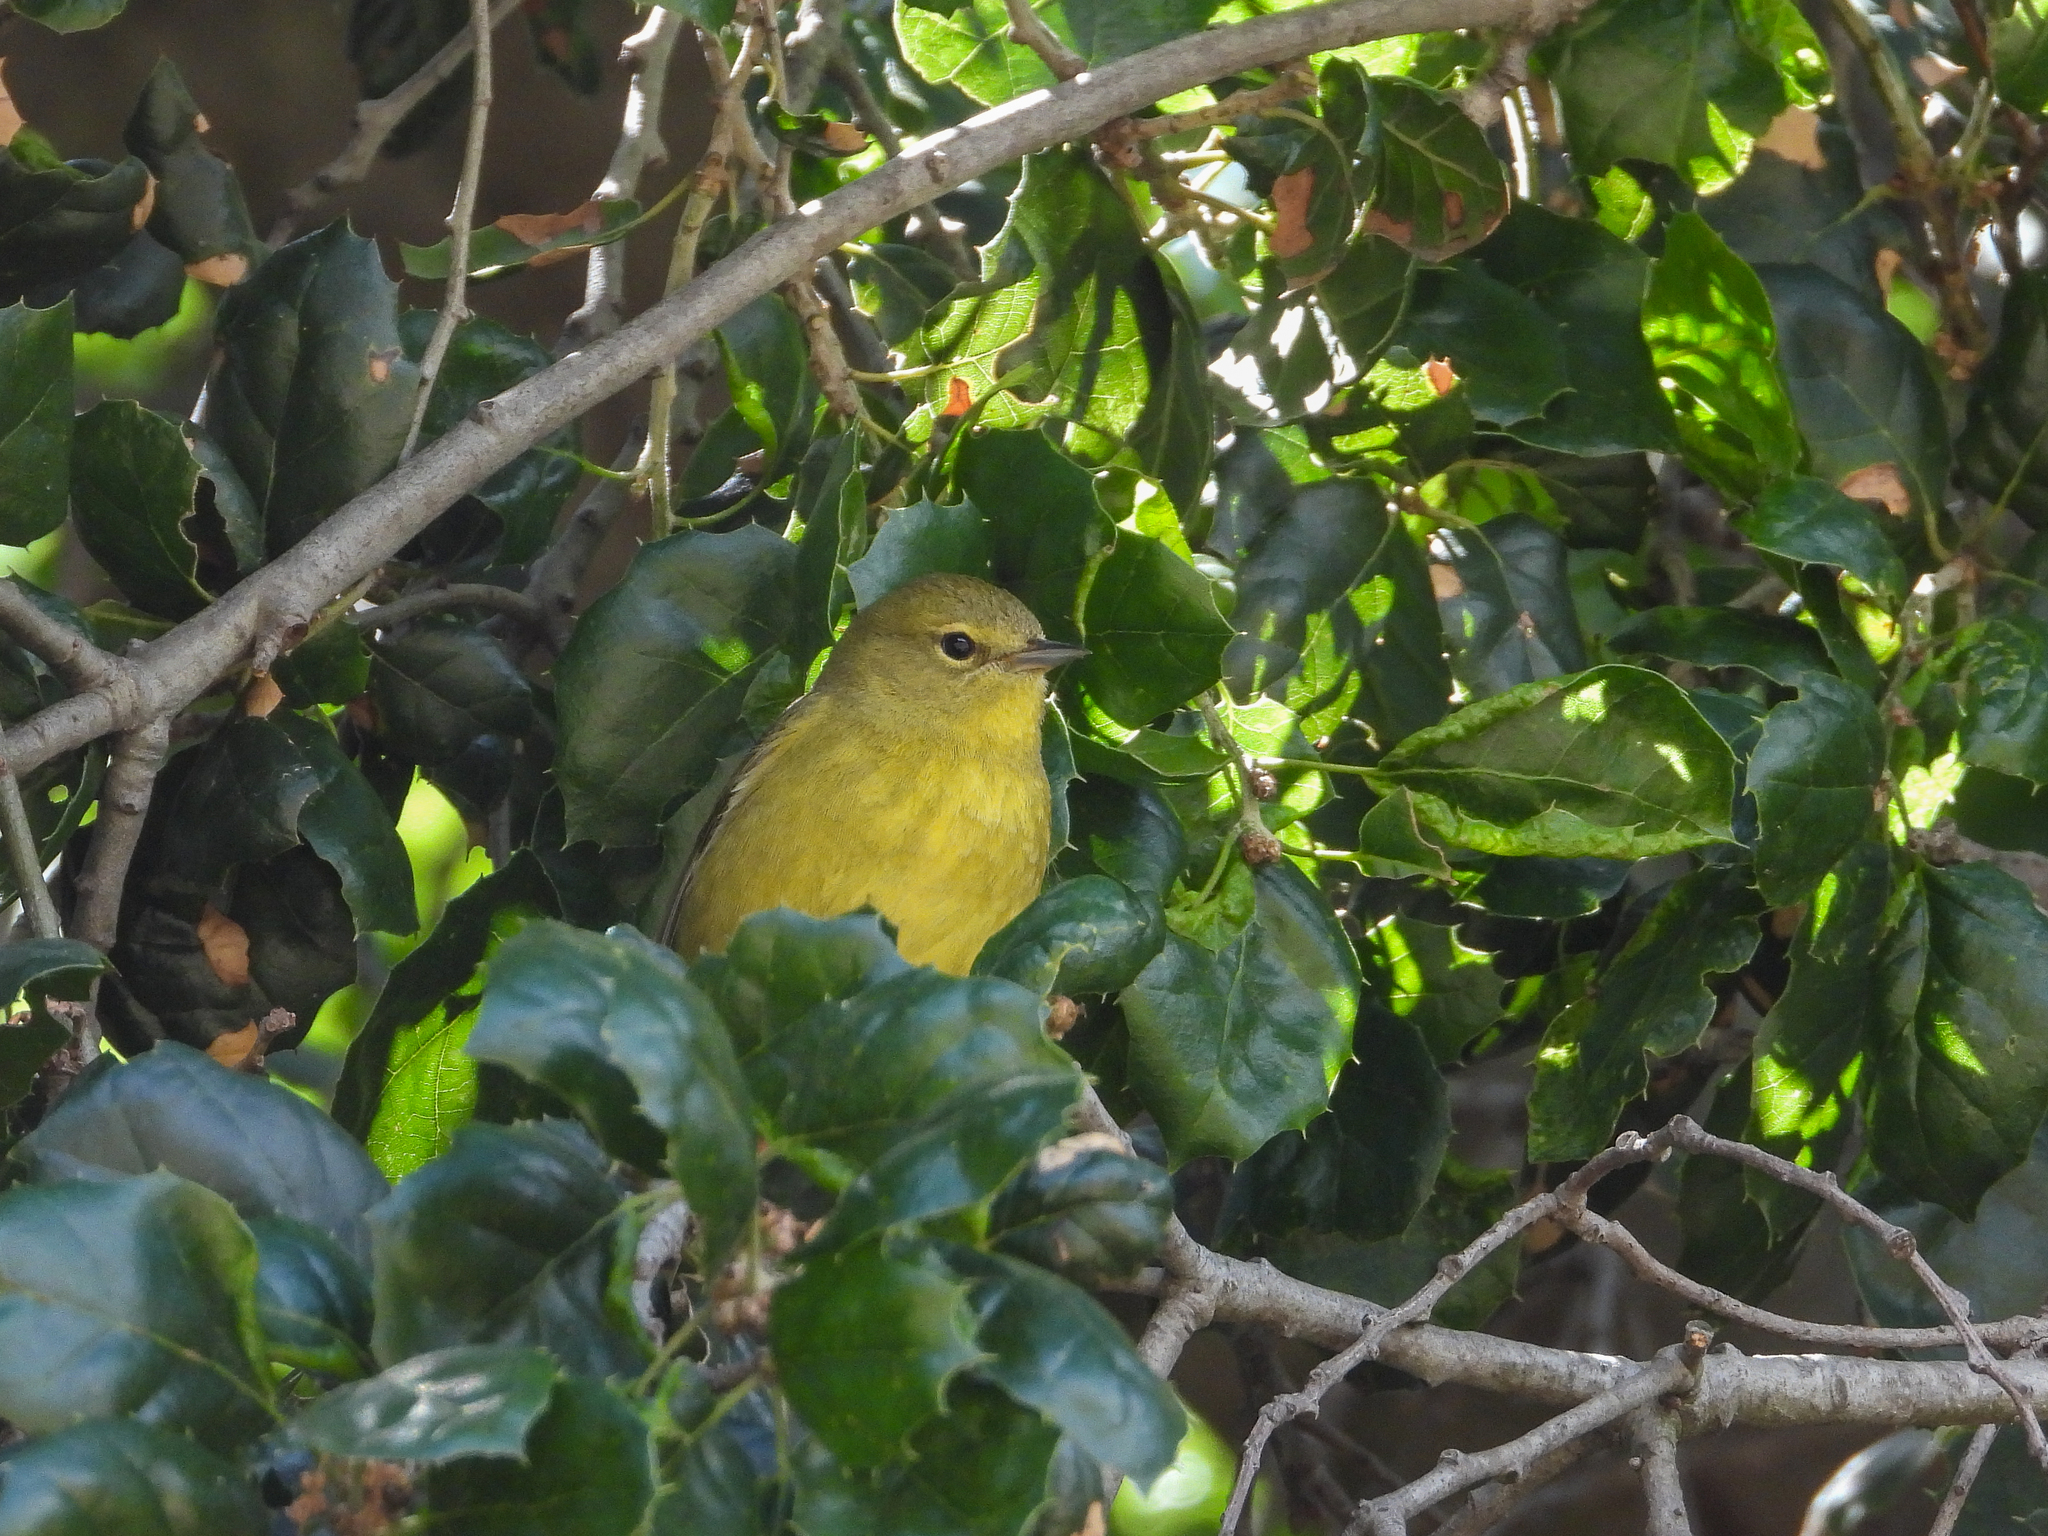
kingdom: Animalia
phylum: Chordata
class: Aves
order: Passeriformes
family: Parulidae
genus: Leiothlypis
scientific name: Leiothlypis celata
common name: Orange-crowned warbler
